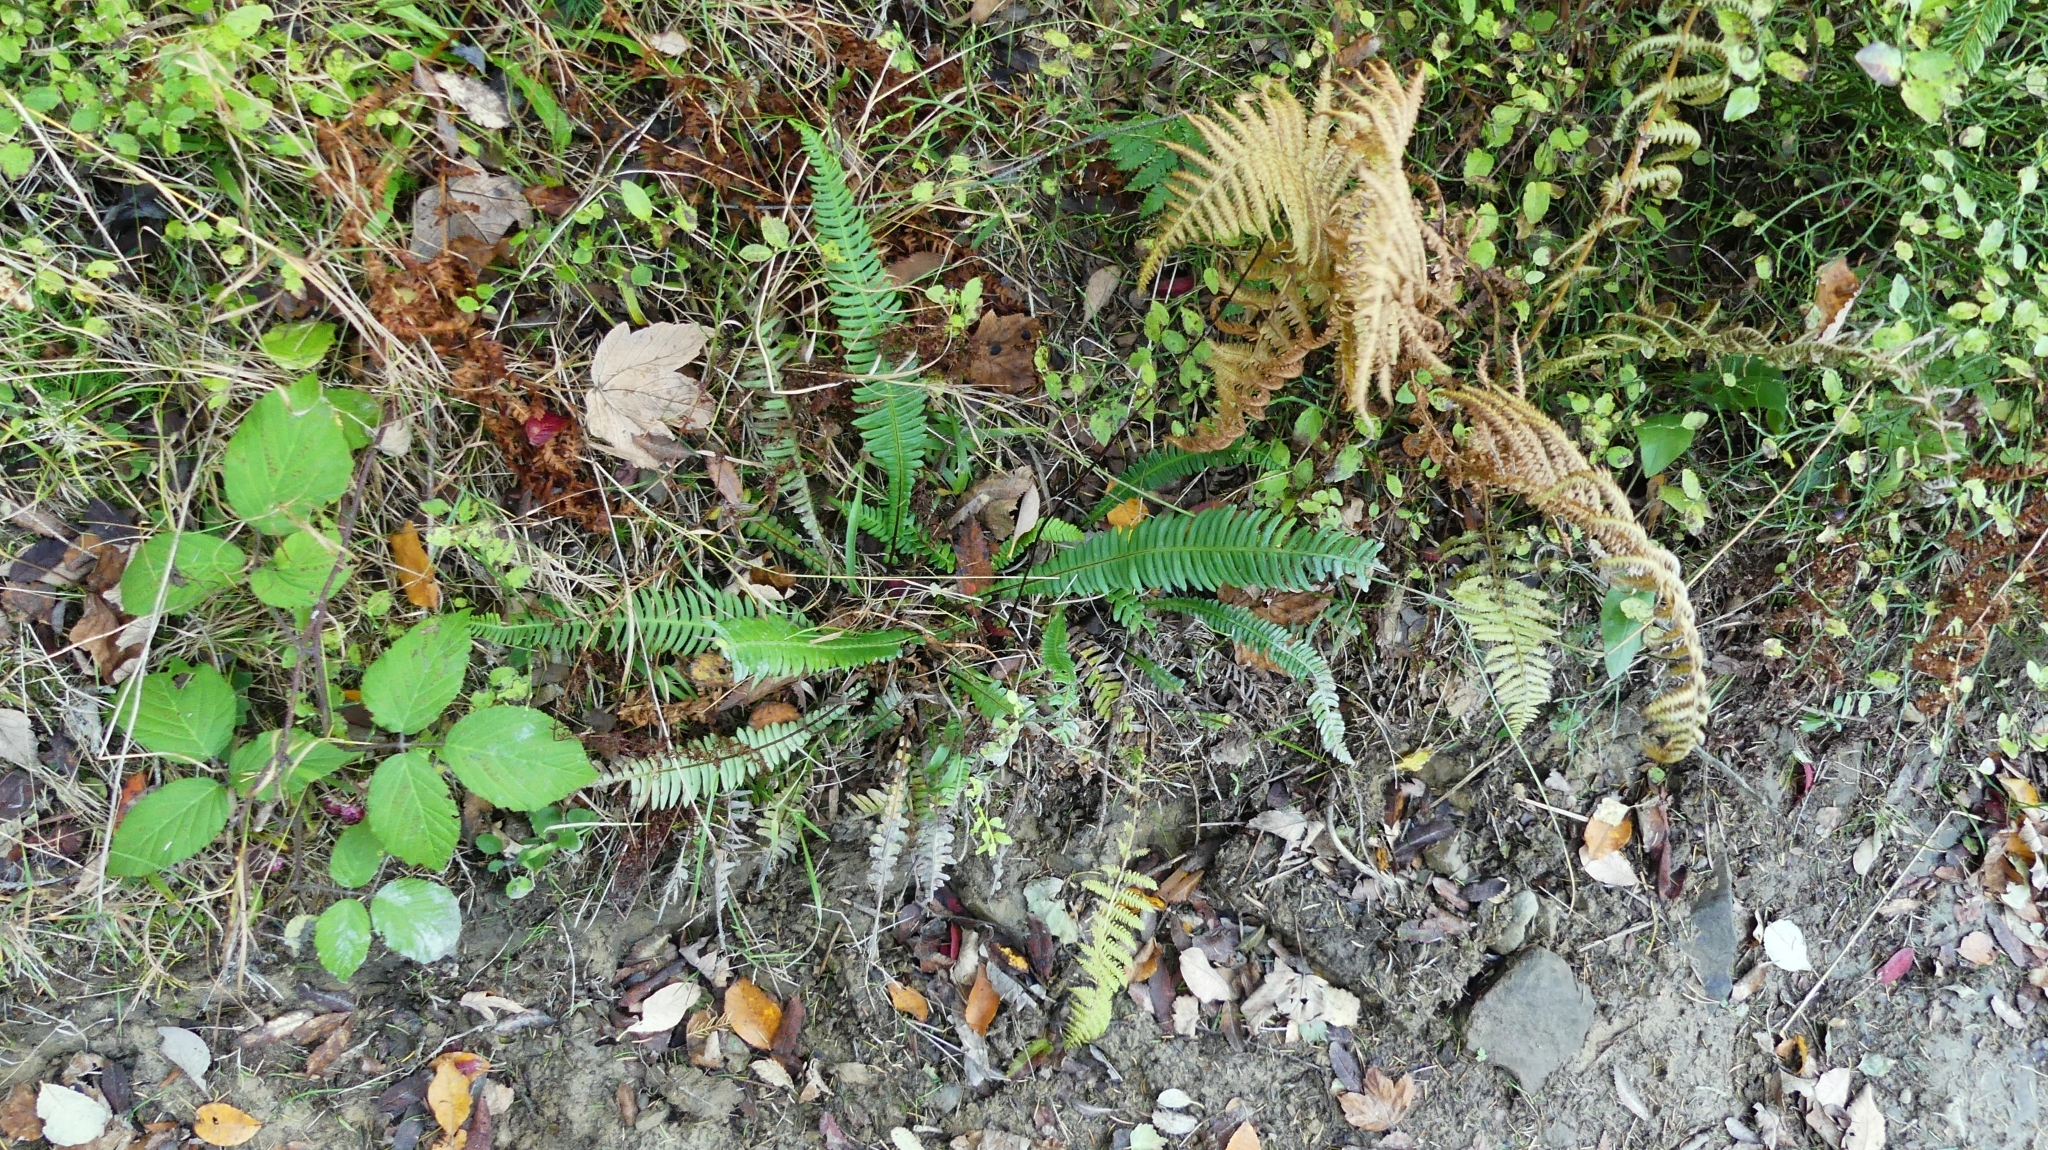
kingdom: Plantae
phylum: Tracheophyta
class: Polypodiopsida
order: Polypodiales
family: Blechnaceae
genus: Struthiopteris
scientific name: Struthiopteris spicant
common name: Deer fern
